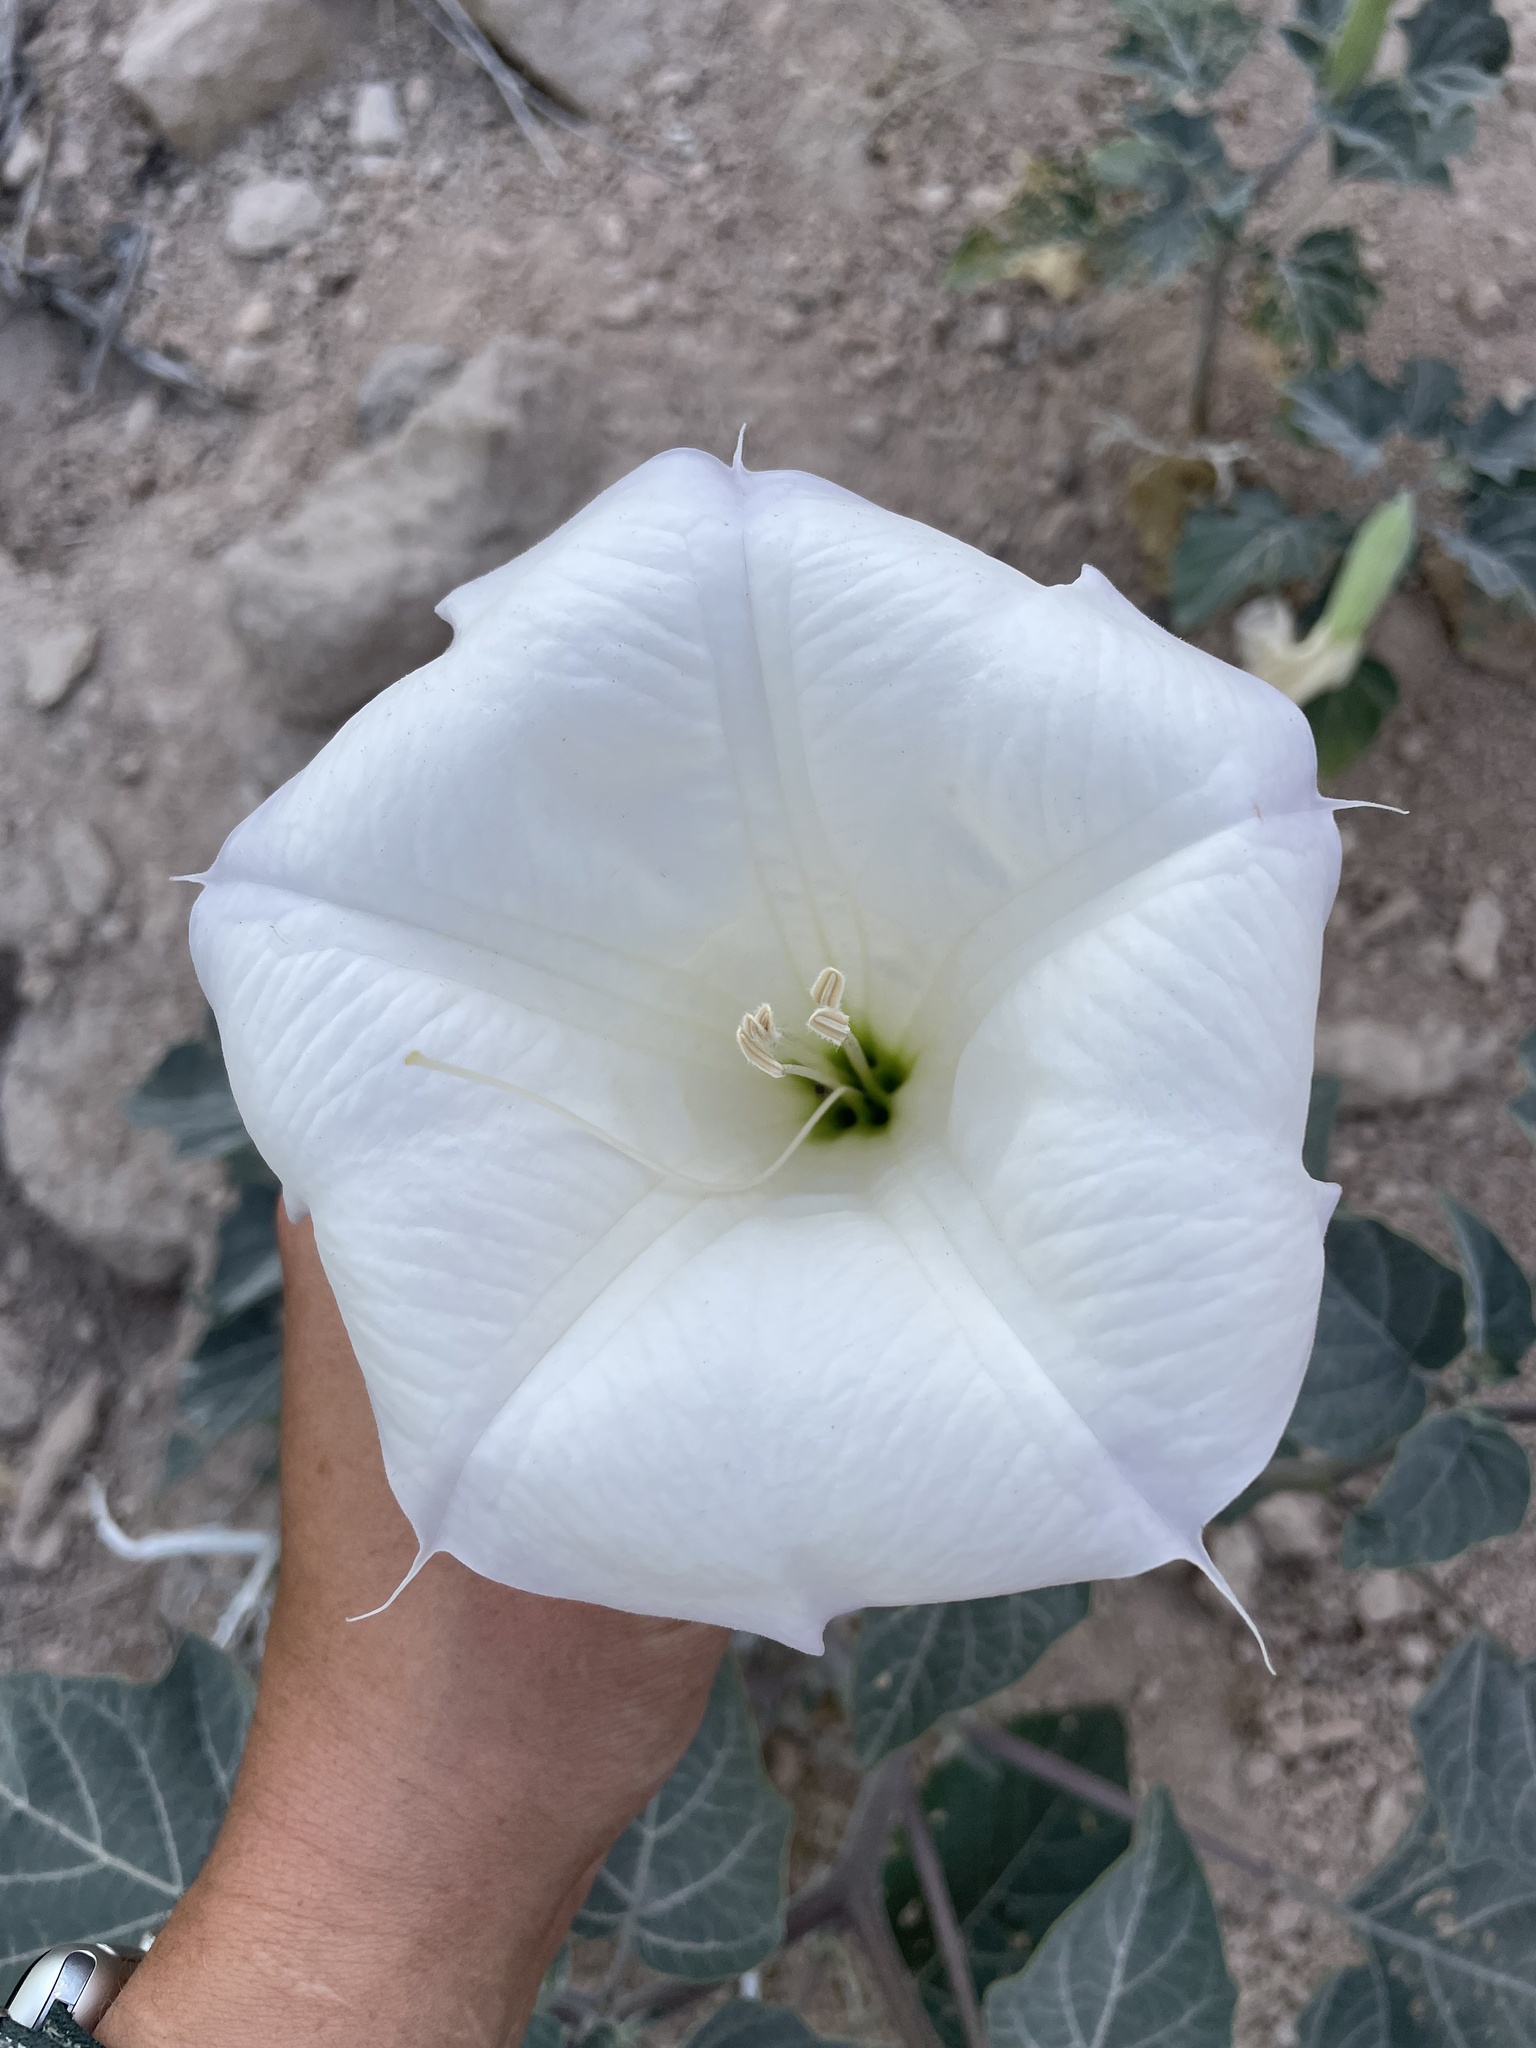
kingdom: Plantae
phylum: Tracheophyta
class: Magnoliopsida
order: Solanales
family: Solanaceae
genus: Datura
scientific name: Datura wrightii
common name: Sacred thorn-apple
